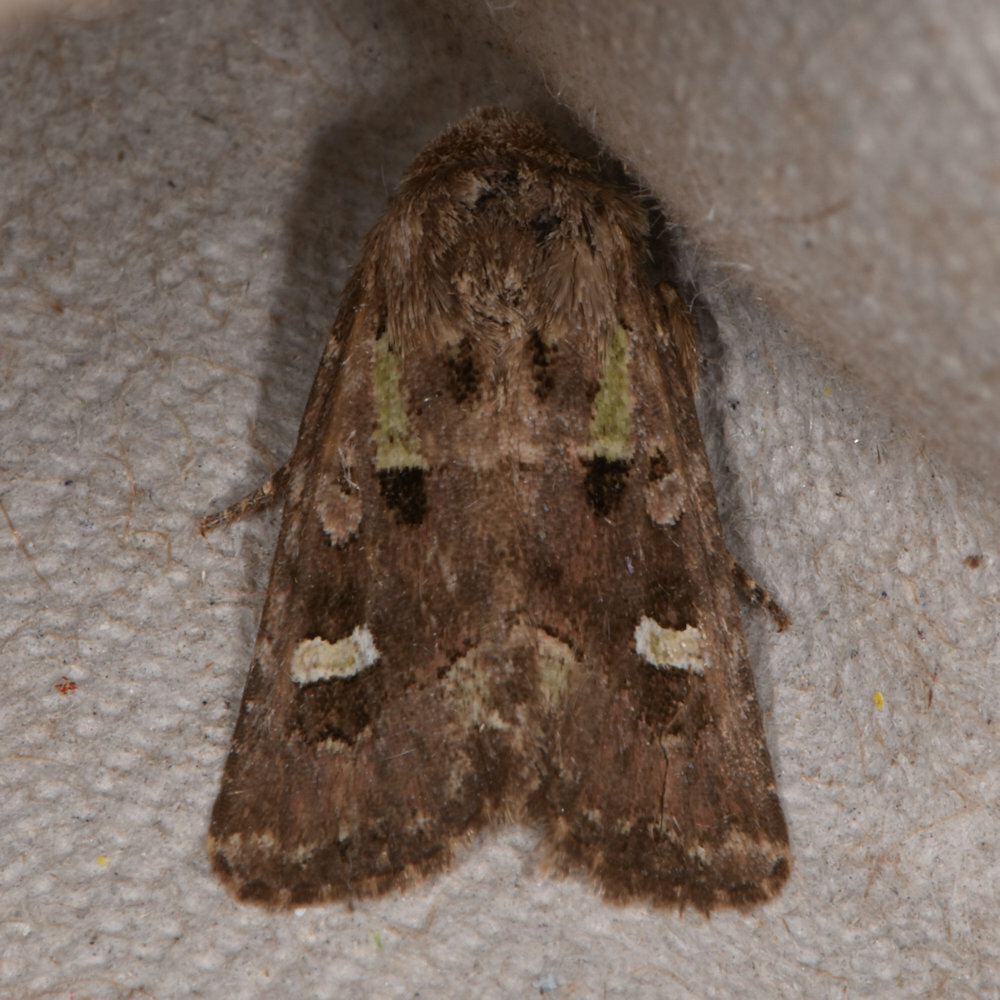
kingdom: Animalia
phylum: Arthropoda
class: Insecta
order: Lepidoptera
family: Noctuidae
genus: Lacinipolia
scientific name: Lacinipolia renigera
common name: Kidney-spotted minor
